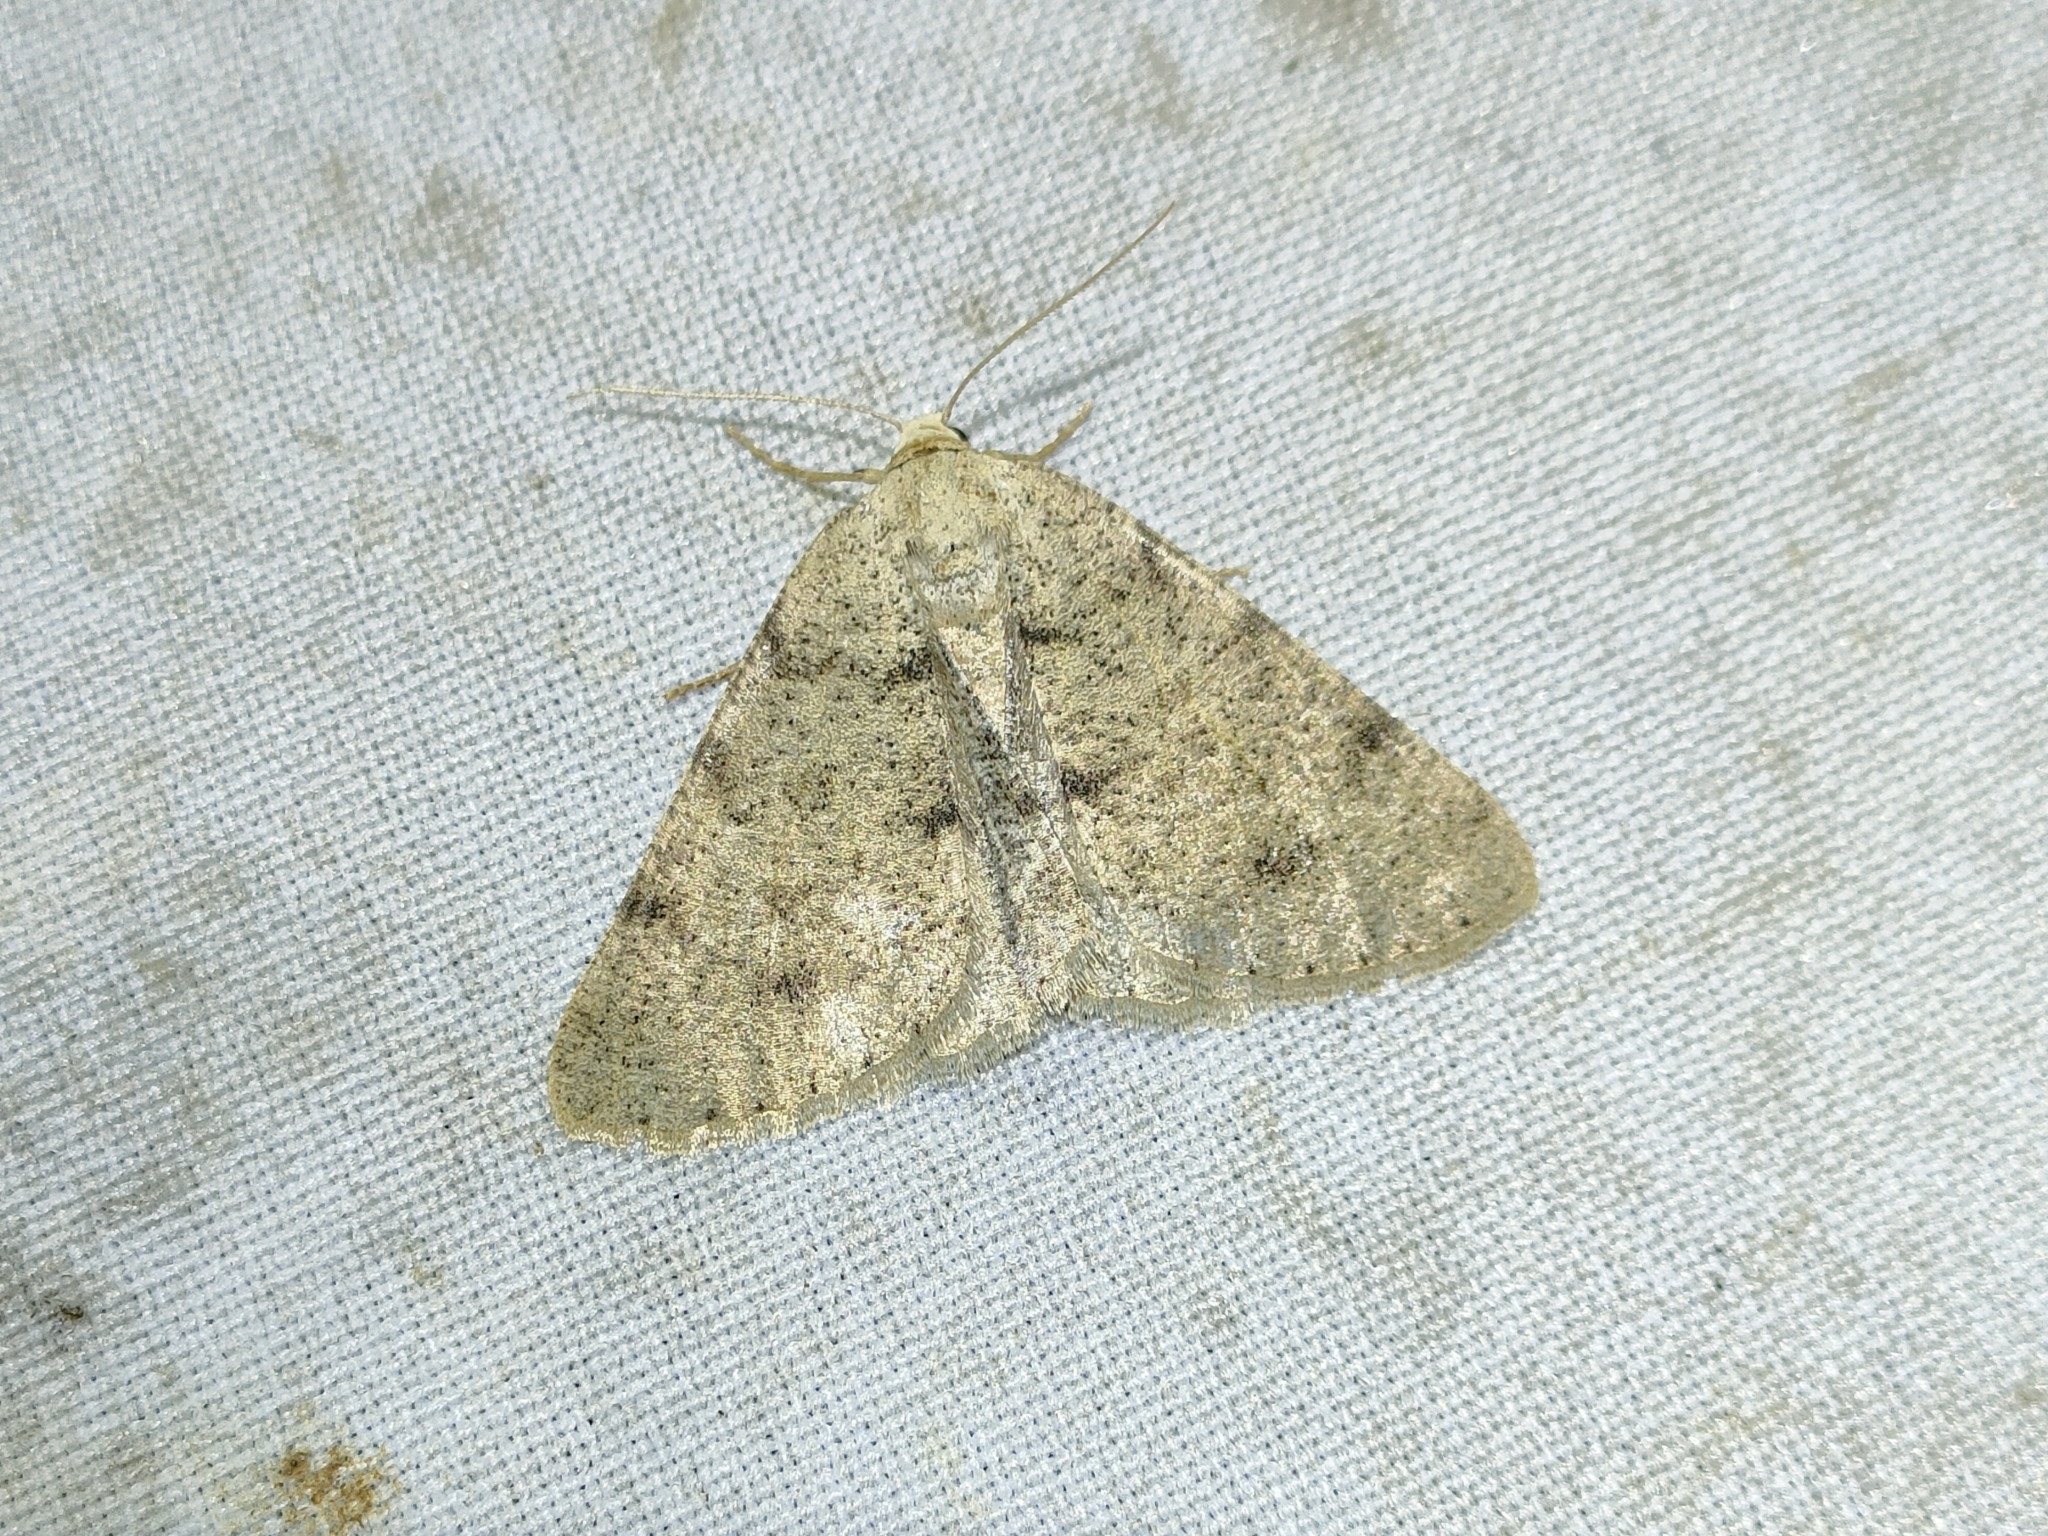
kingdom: Animalia
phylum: Arthropoda
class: Insecta
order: Lepidoptera
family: Geometridae
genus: Isturgia
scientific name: Isturgia miniosaria
